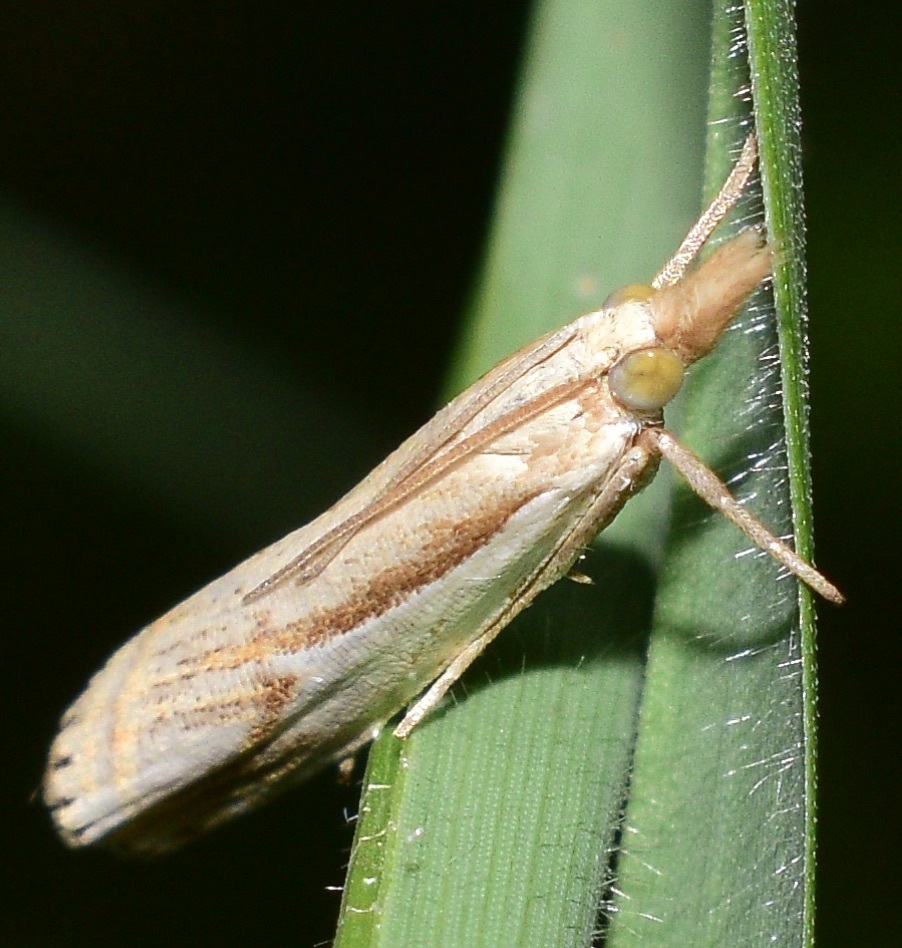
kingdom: Animalia
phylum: Arthropoda
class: Insecta
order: Lepidoptera
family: Crambidae
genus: Crambus
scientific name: Crambus agitatellus
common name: Double-banded grass-veneer
